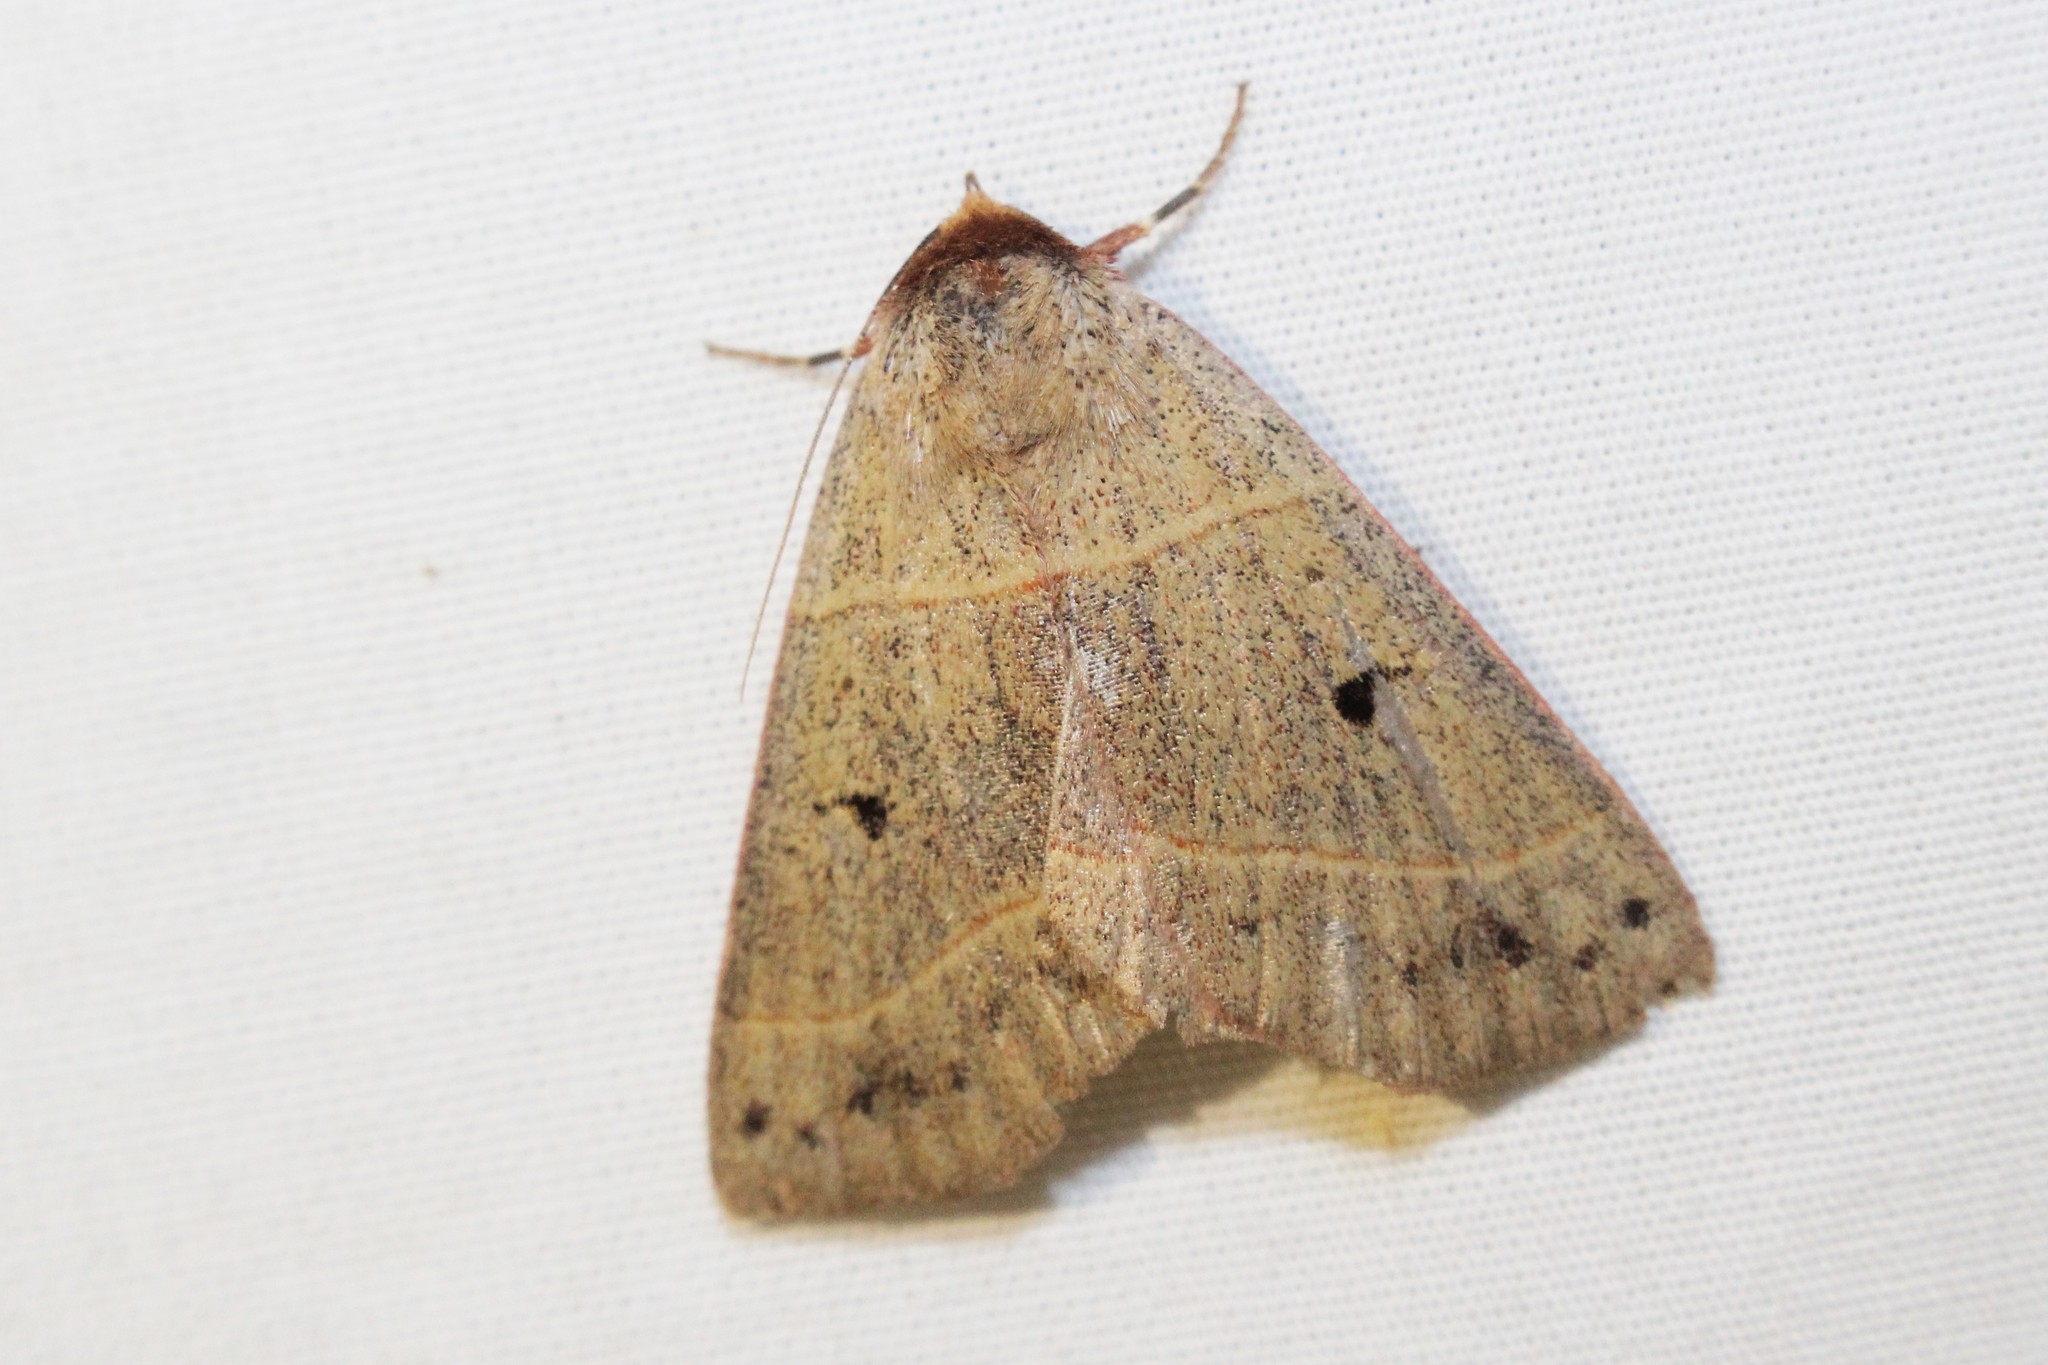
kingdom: Animalia
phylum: Arthropoda
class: Insecta
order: Lepidoptera
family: Erebidae
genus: Panopoda
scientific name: Panopoda rufimargo
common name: Red-lined panopoda moth
